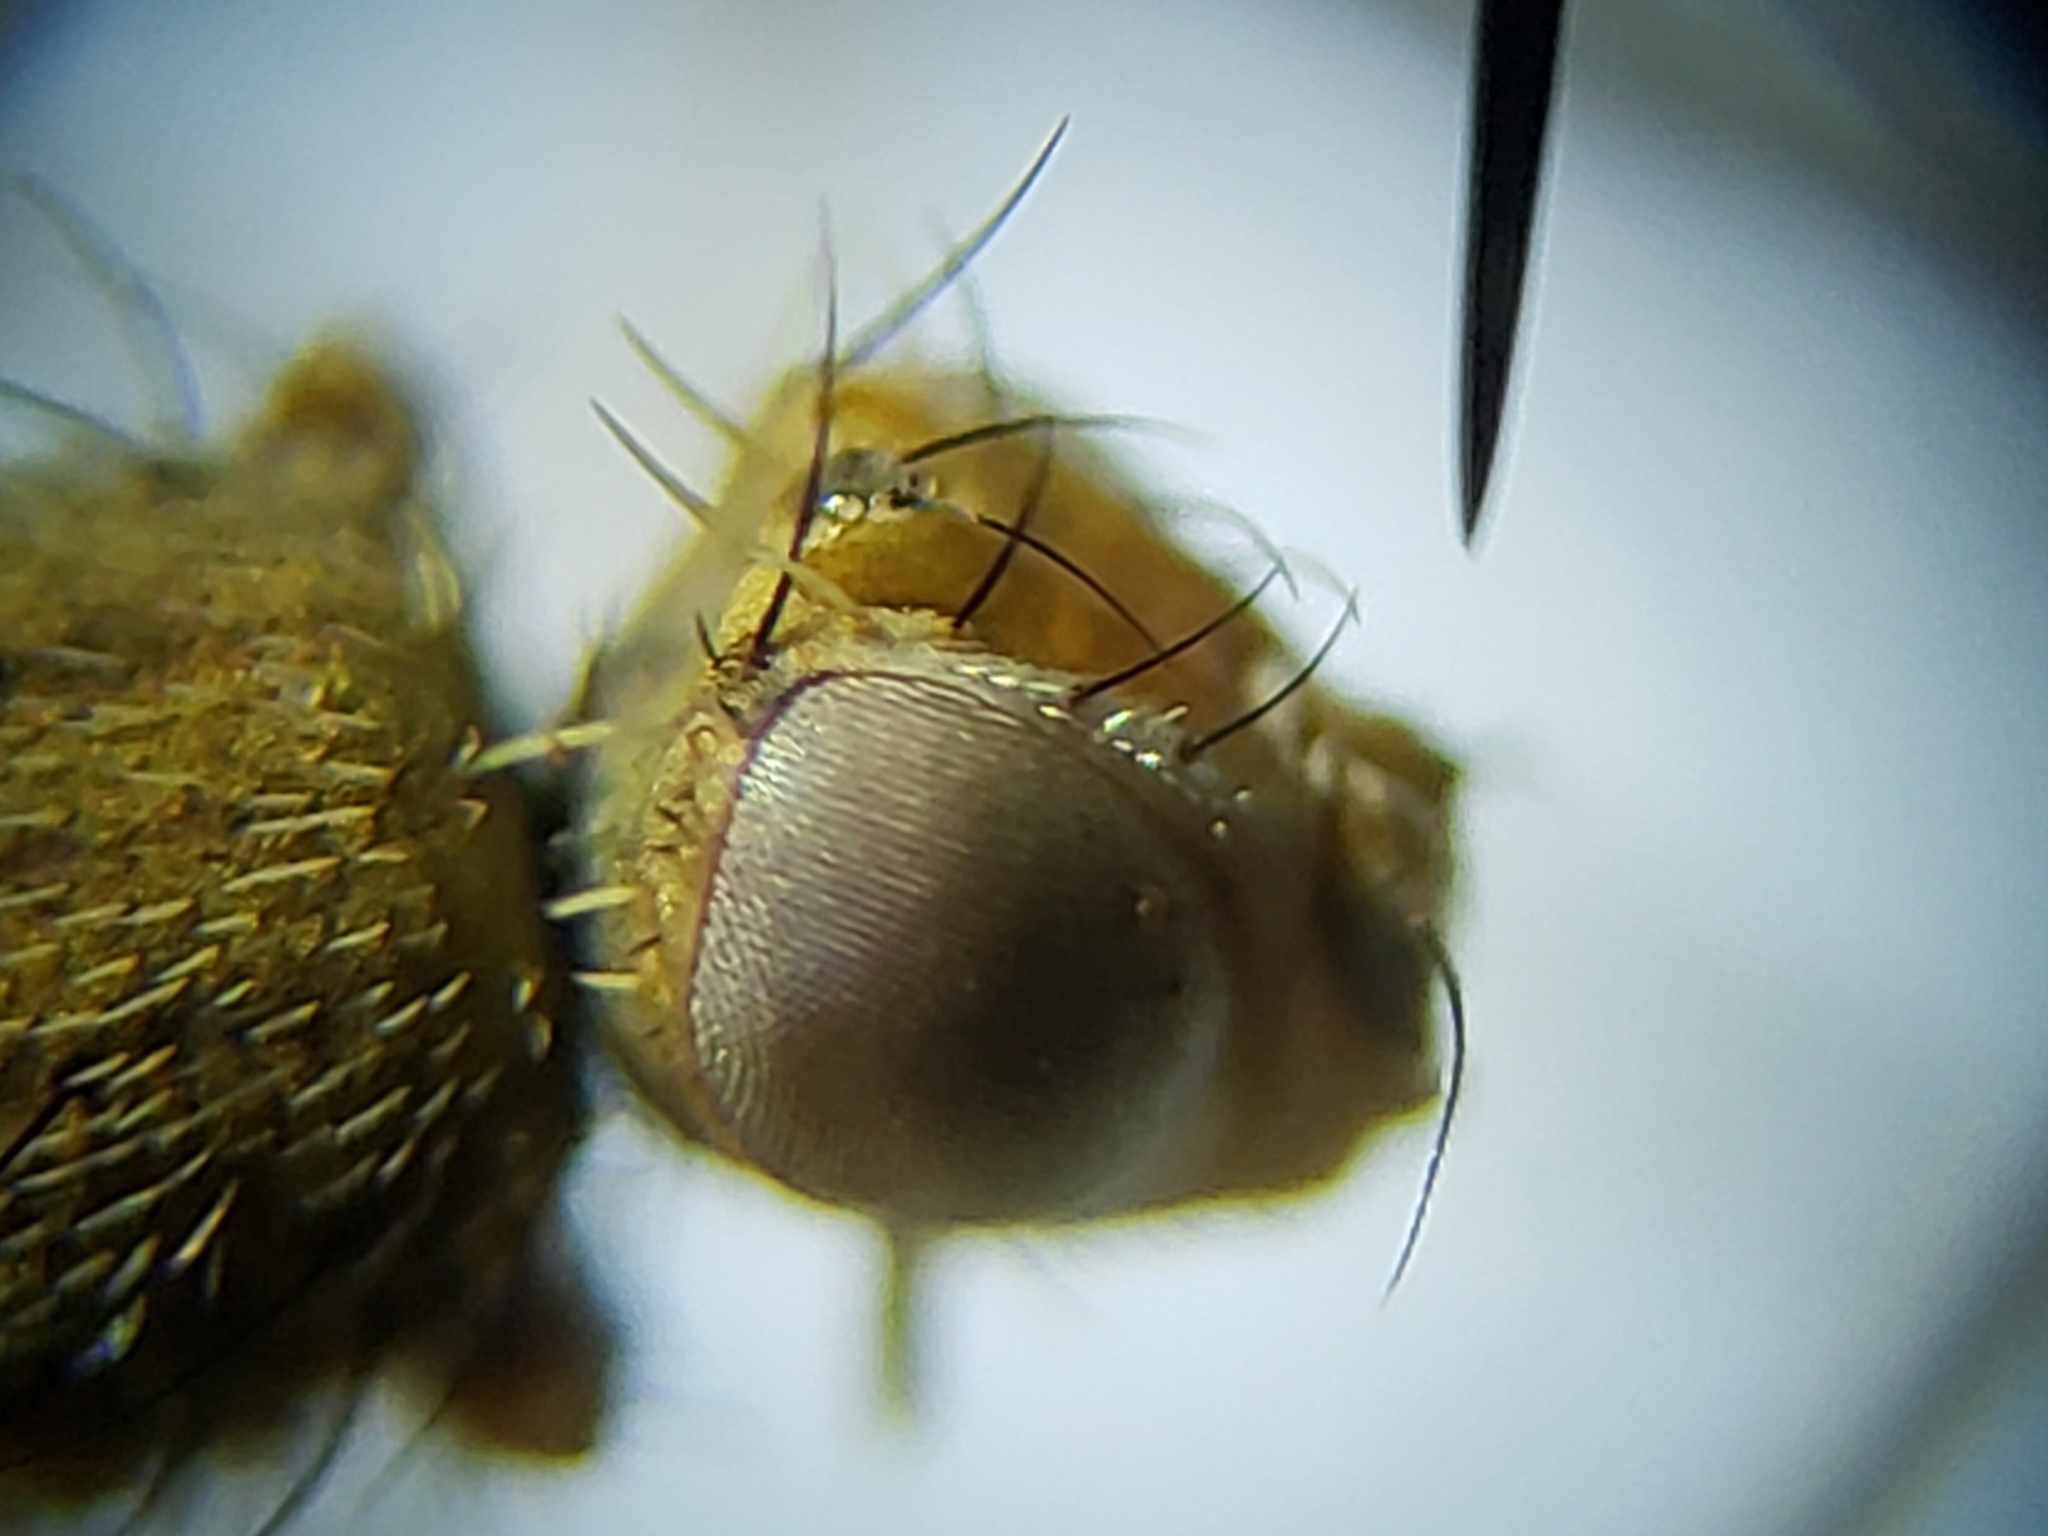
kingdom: Animalia
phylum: Arthropoda
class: Insecta
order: Diptera
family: Tephritidae
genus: Dioxyna
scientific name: Dioxyna picciola
